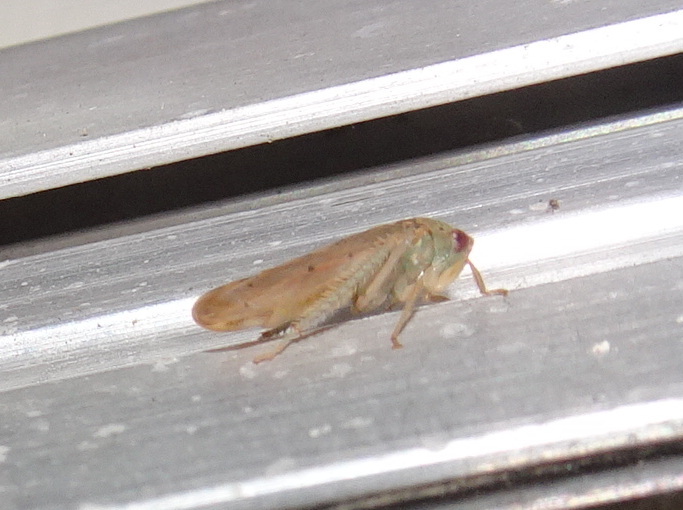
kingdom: Animalia
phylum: Arthropoda
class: Insecta
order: Hemiptera
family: Cicadellidae
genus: Polana
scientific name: Polana quadrinotata
